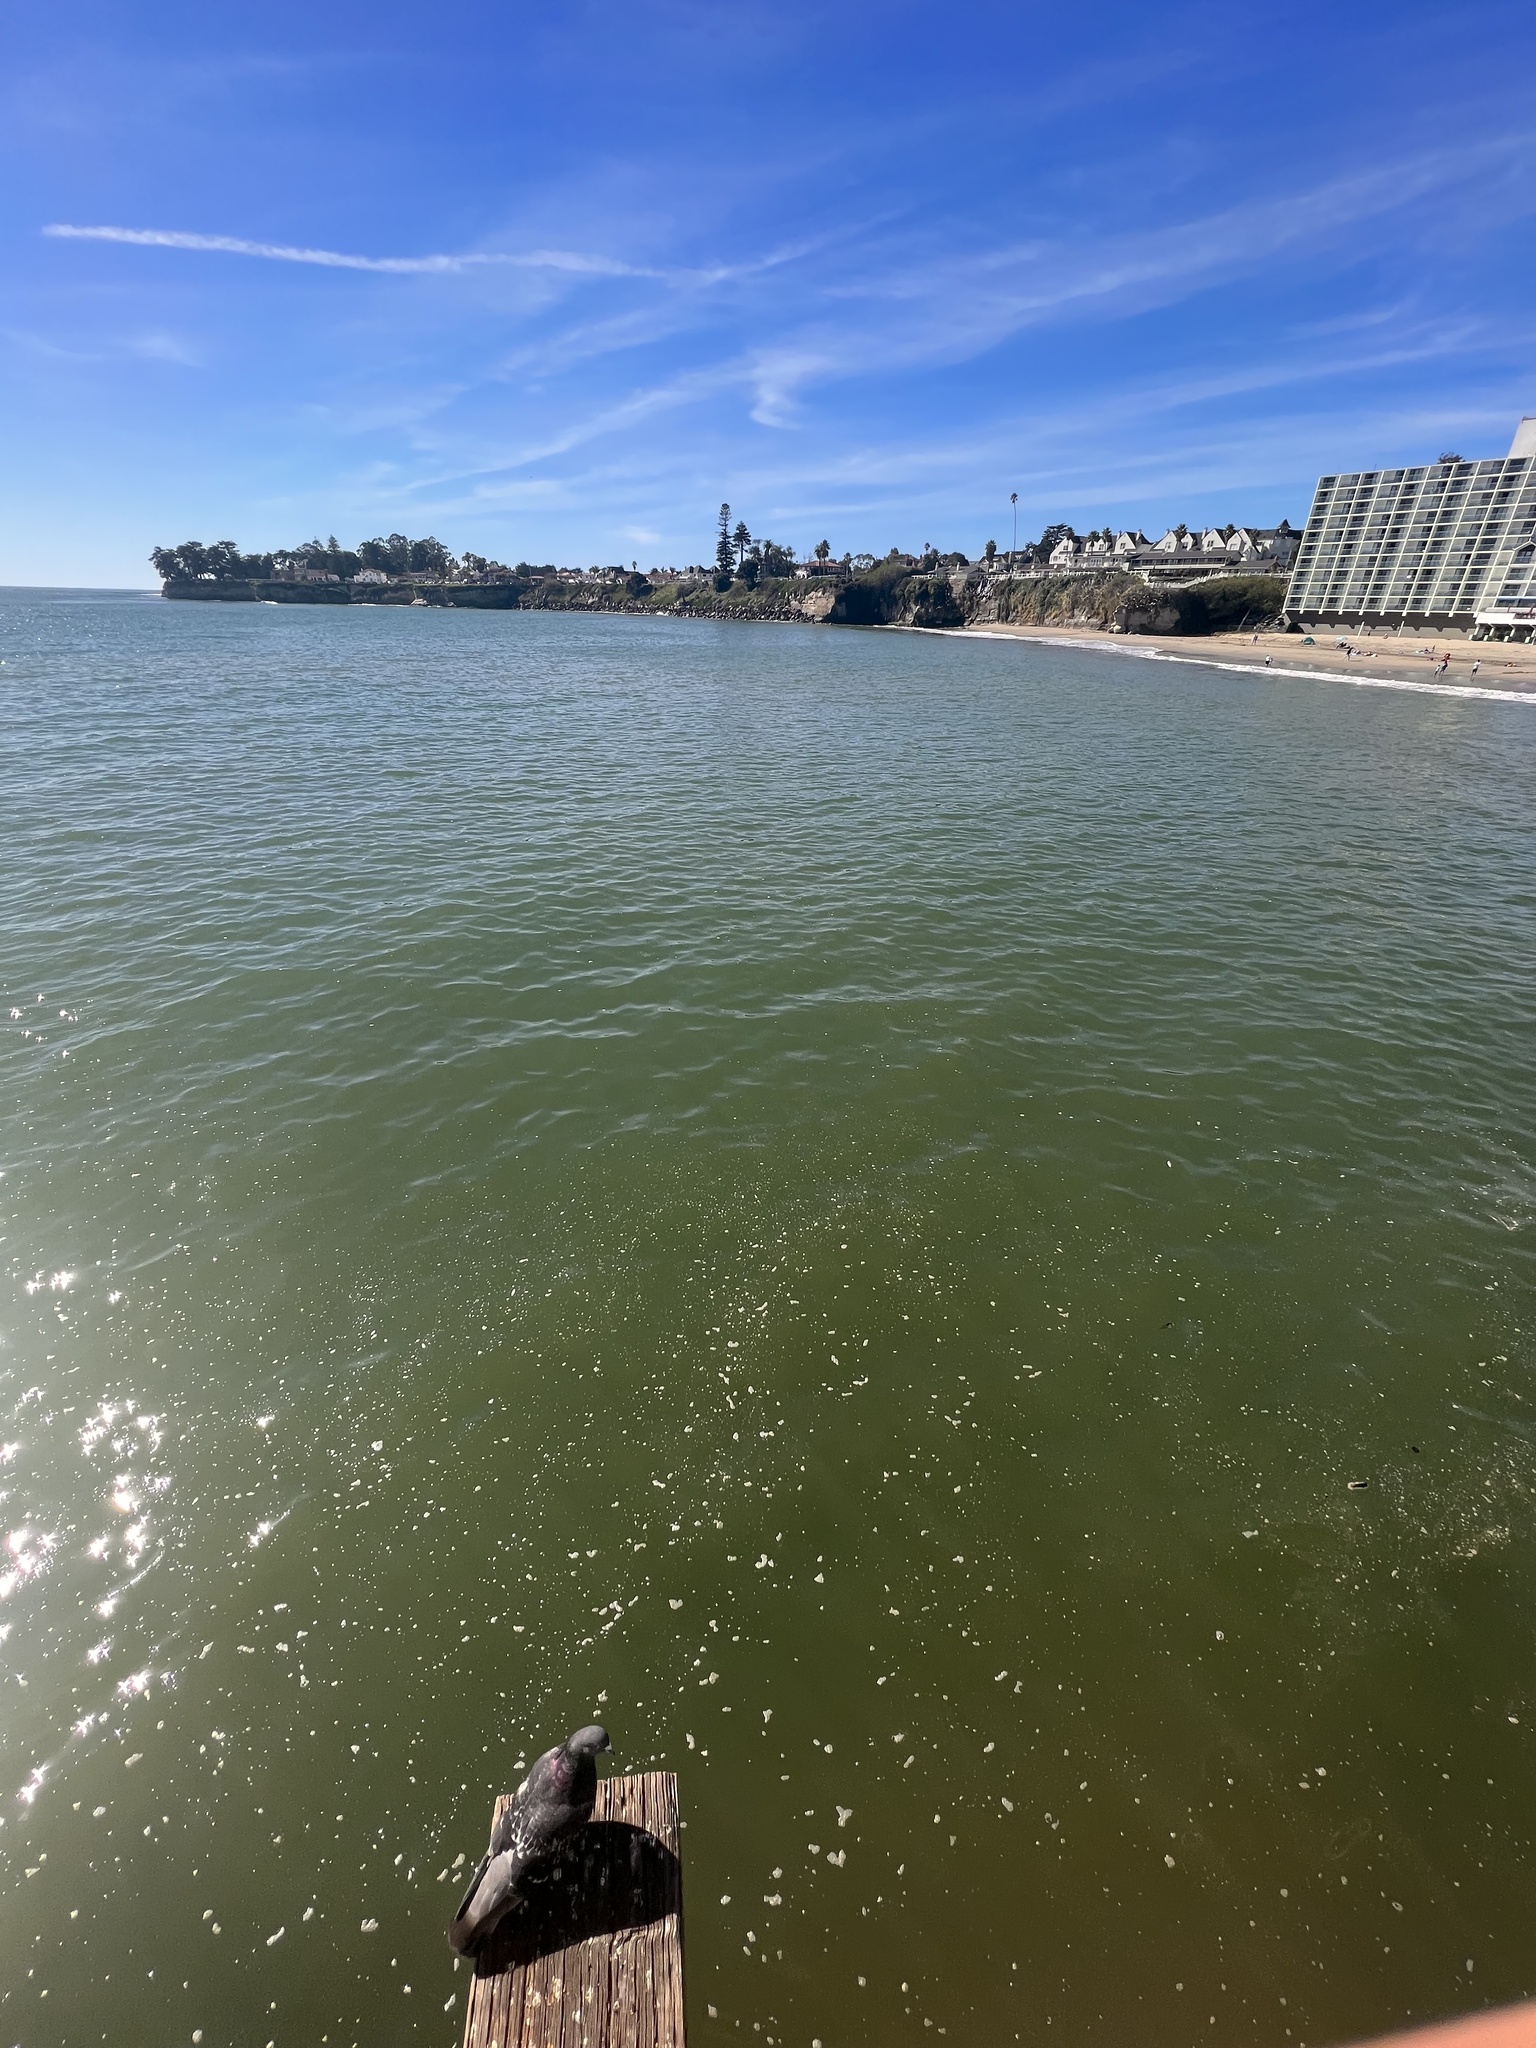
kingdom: Animalia
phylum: Chordata
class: Aves
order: Columbiformes
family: Columbidae
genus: Columba
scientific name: Columba livia
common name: Rock pigeon
